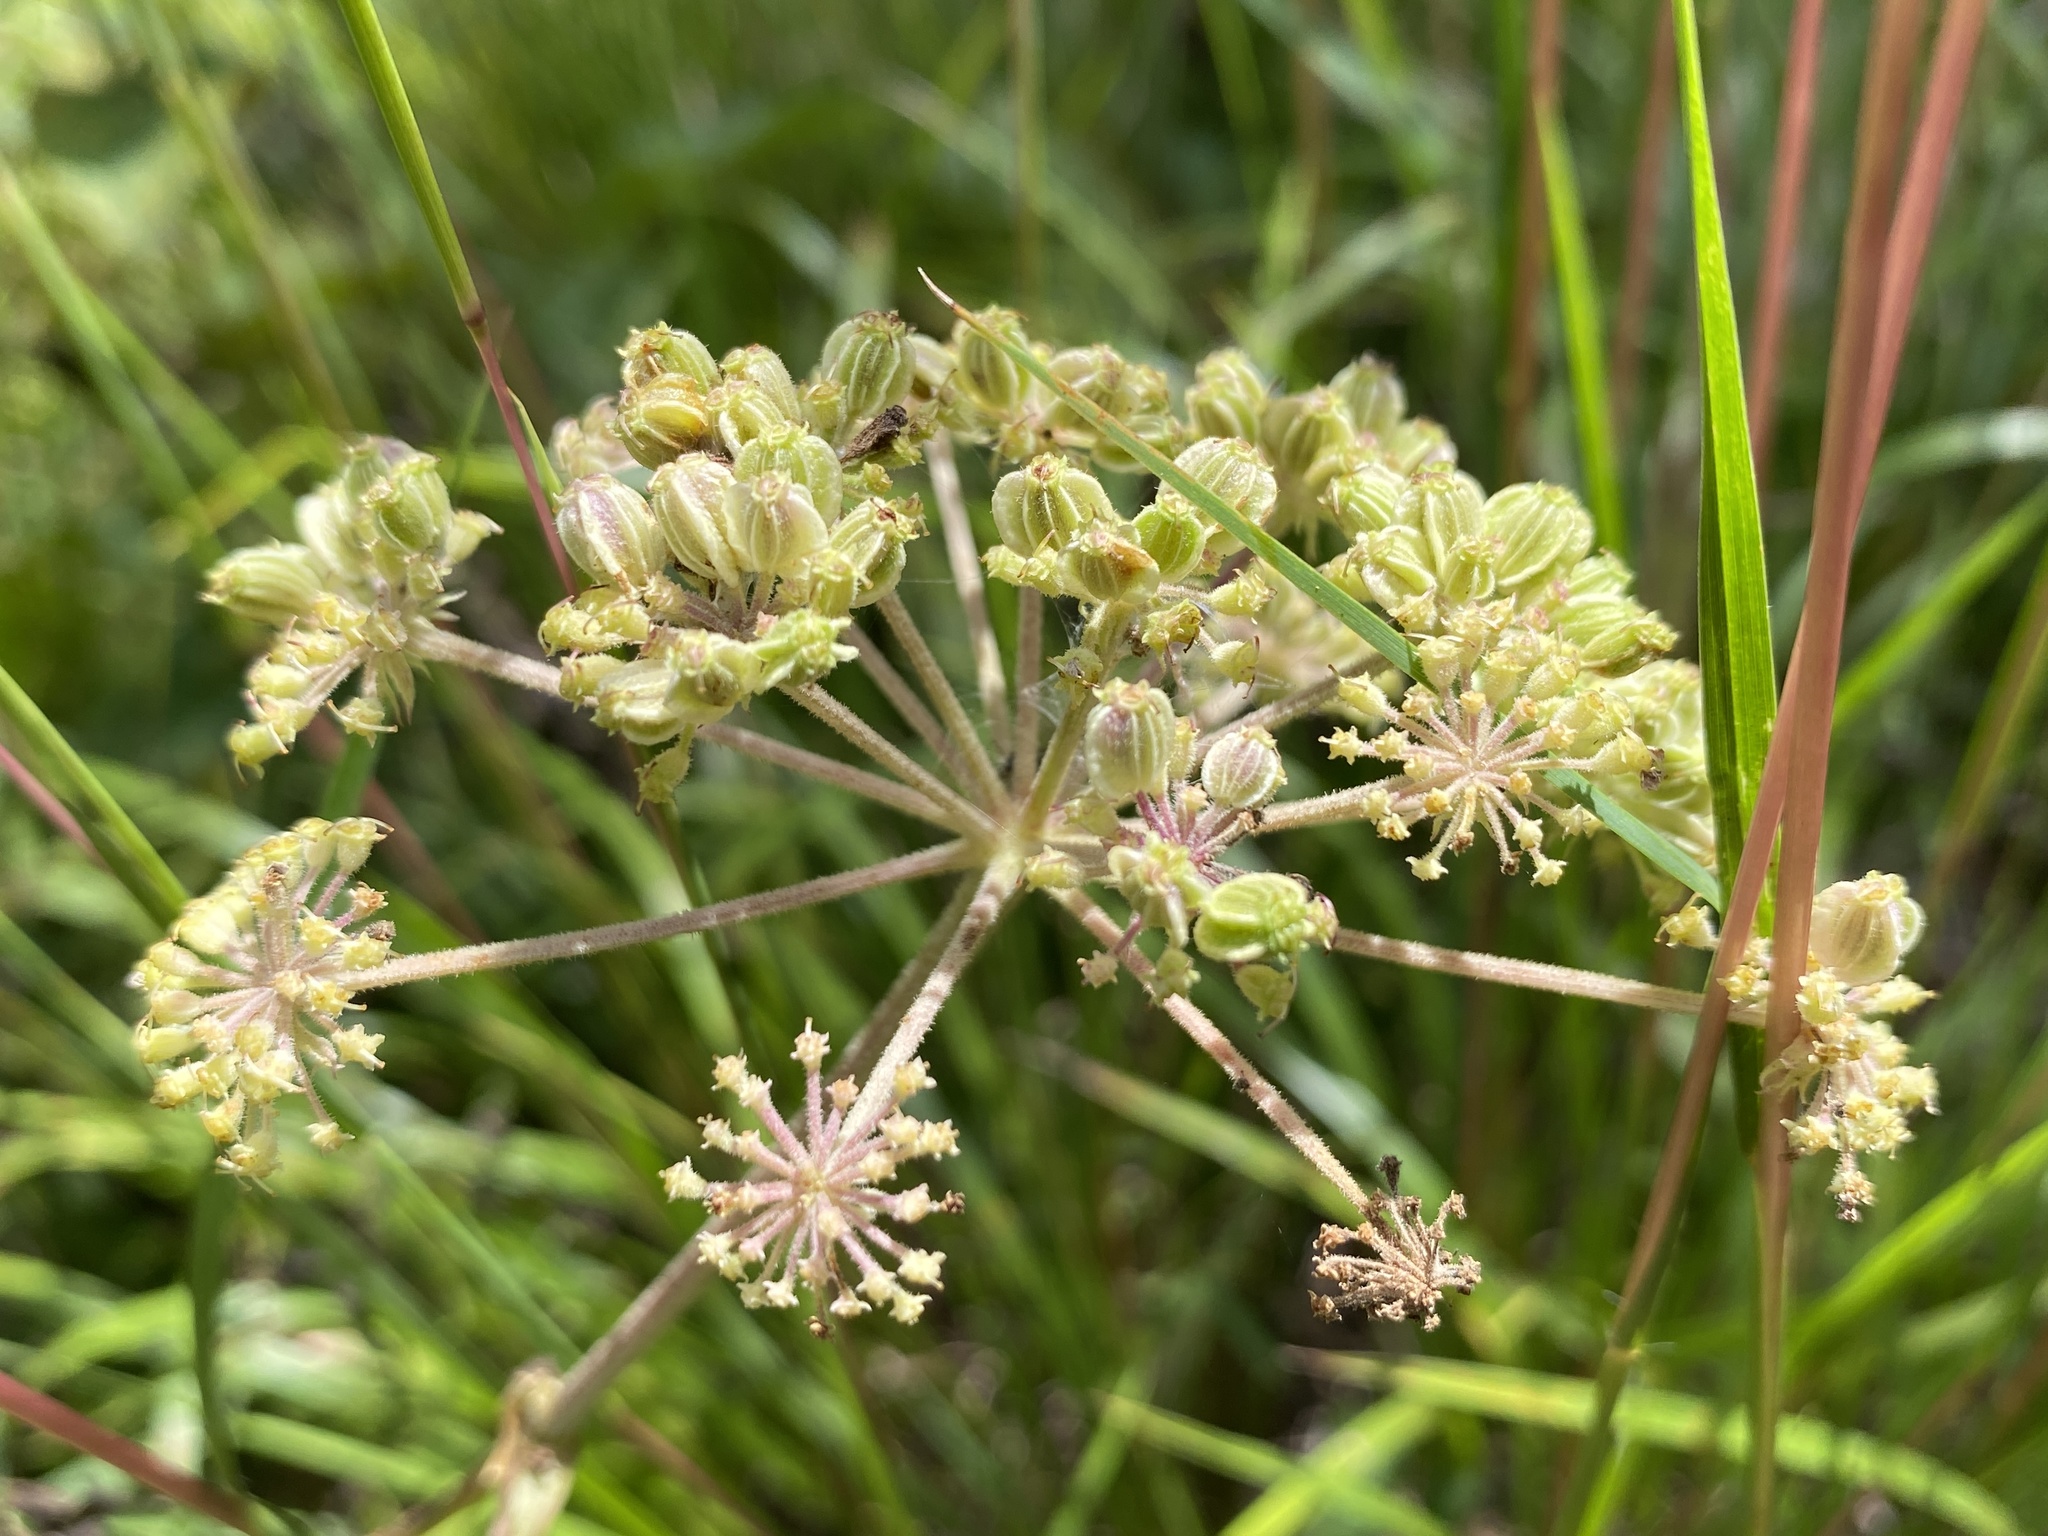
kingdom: Plantae
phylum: Tracheophyta
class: Magnoliopsida
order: Apiales
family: Apiaceae
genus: Angelica
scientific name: Angelica venenosa
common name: Hairy angelica
